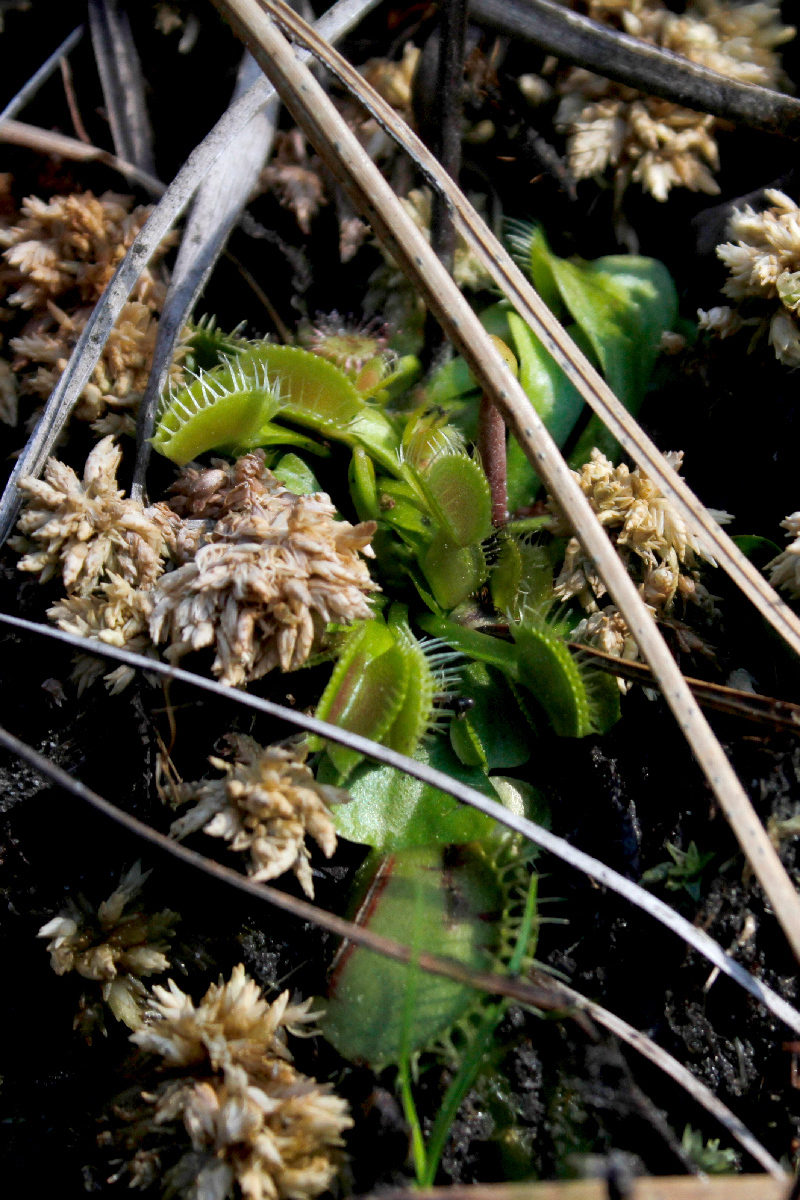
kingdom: Plantae
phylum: Tracheophyta
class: Magnoliopsida
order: Caryophyllales
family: Droseraceae
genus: Dionaea
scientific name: Dionaea muscipula
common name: Venus flytrap
